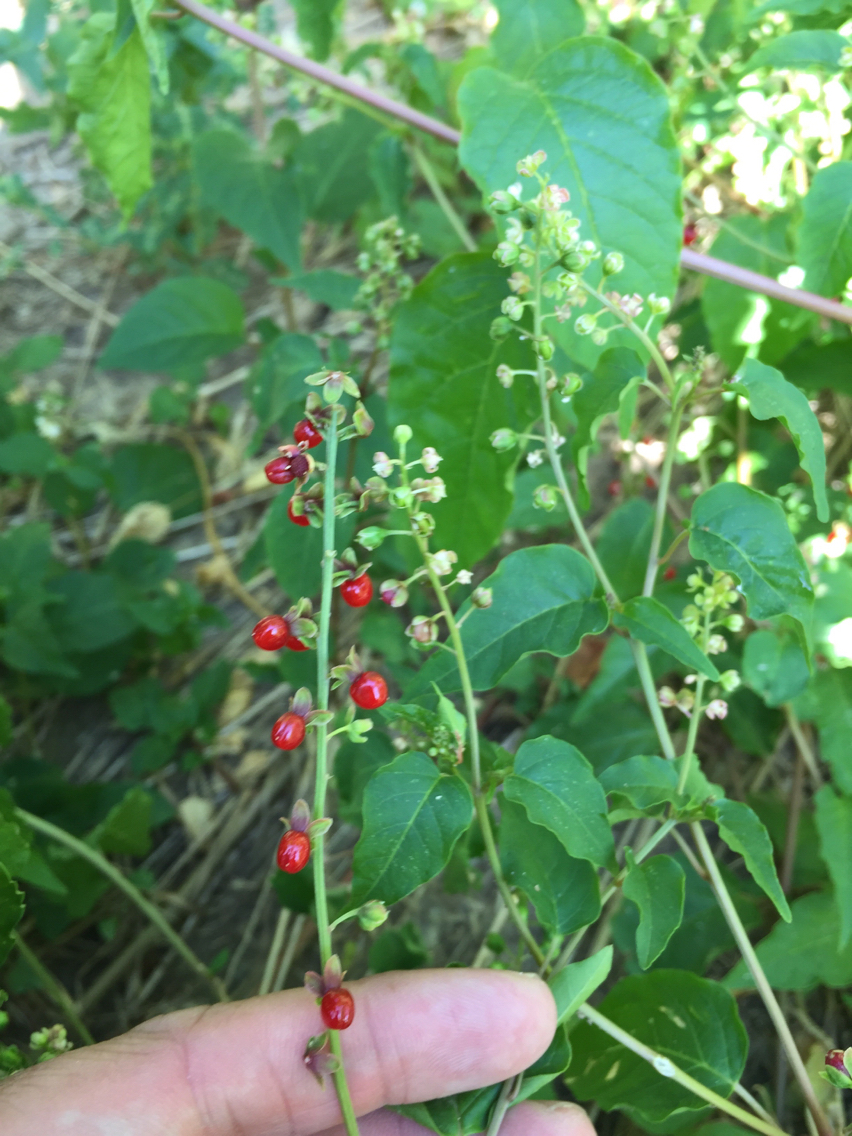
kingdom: Plantae
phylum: Tracheophyta
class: Magnoliopsida
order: Caryophyllales
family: Phytolaccaceae
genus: Rivina
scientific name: Rivina humilis
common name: Rougeplant
